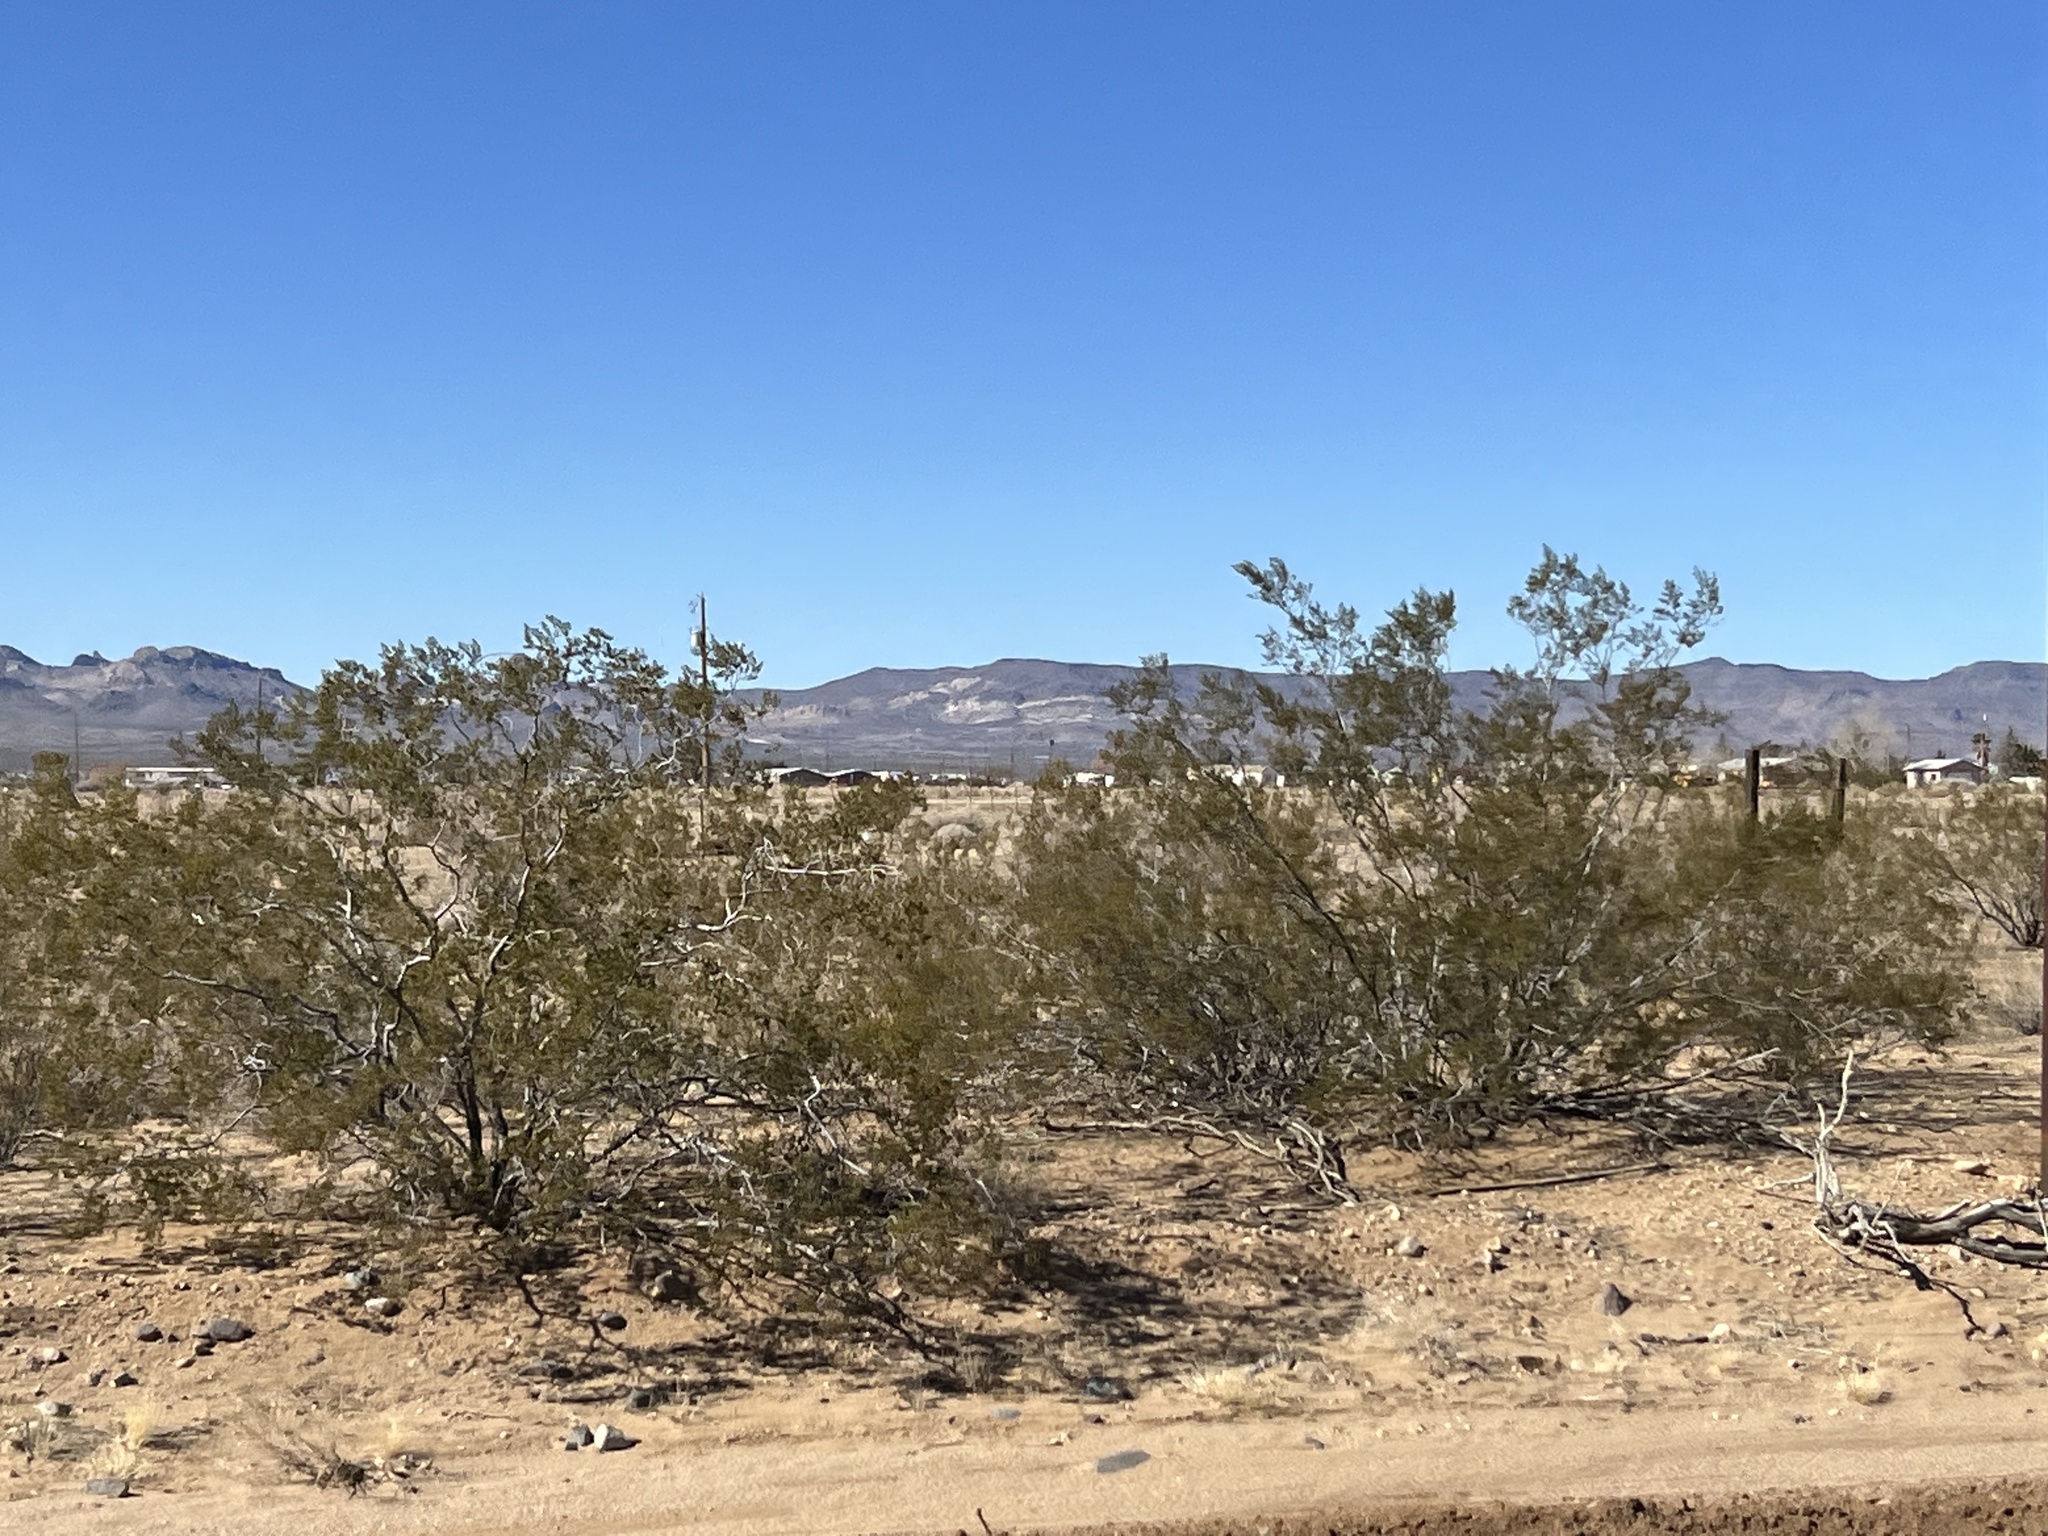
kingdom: Plantae
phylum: Tracheophyta
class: Magnoliopsida
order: Zygophyllales
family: Zygophyllaceae
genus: Larrea
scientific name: Larrea tridentata
